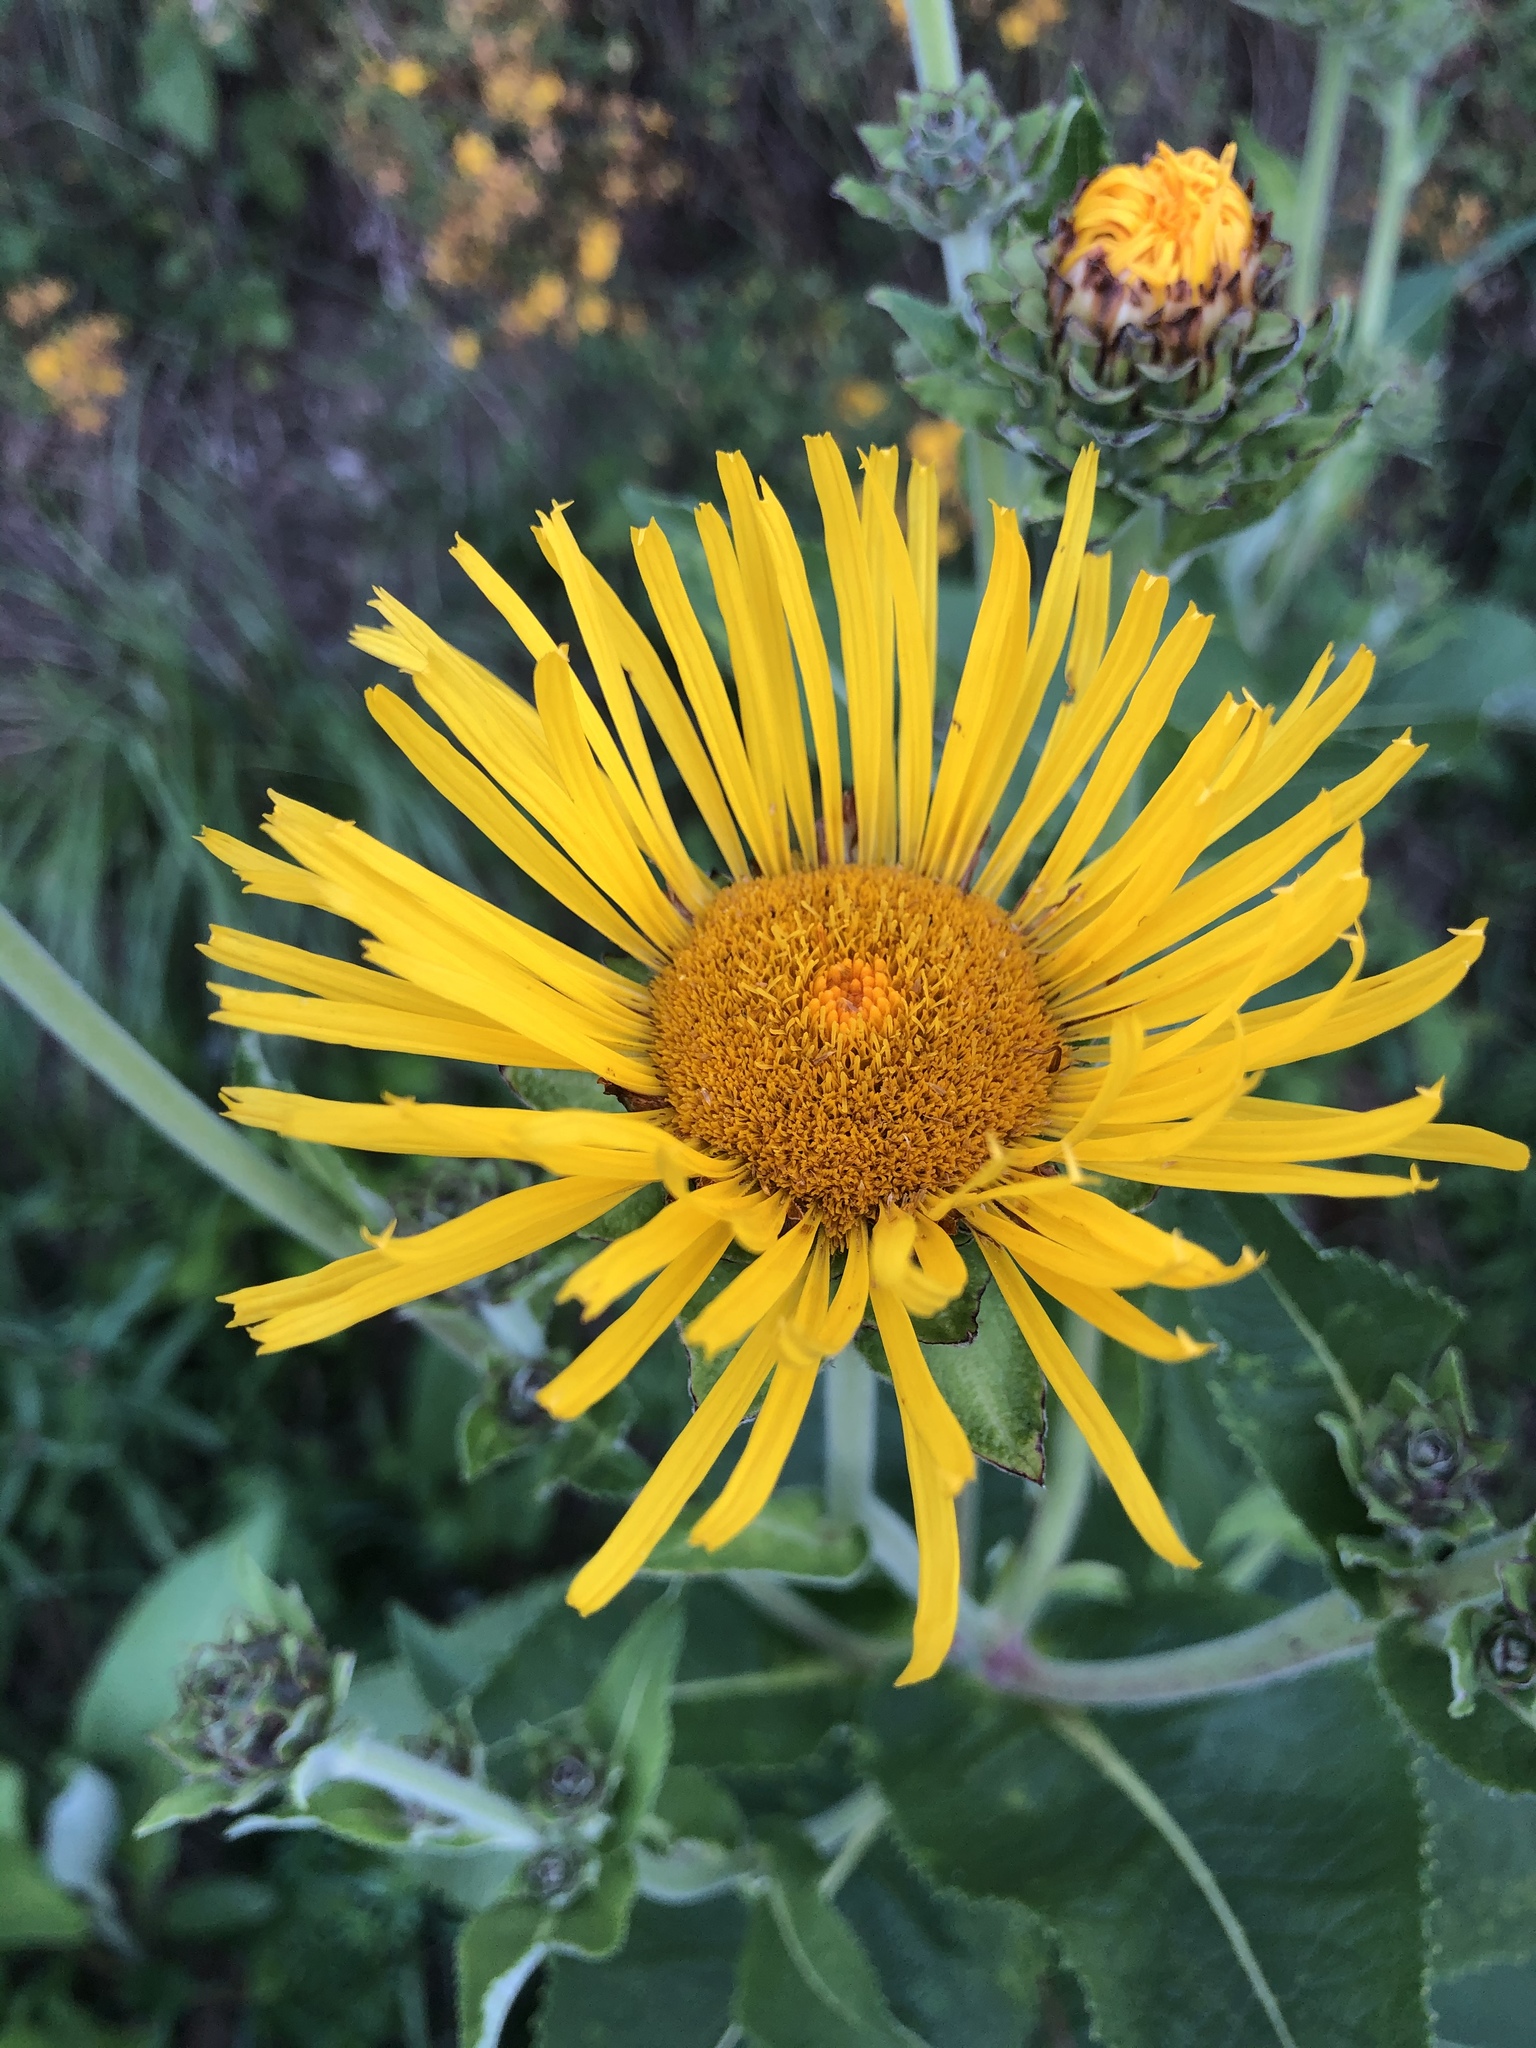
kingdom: Plantae
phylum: Tracheophyta
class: Magnoliopsida
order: Asterales
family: Asteraceae
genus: Inula
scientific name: Inula helenium
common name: Elecampane
